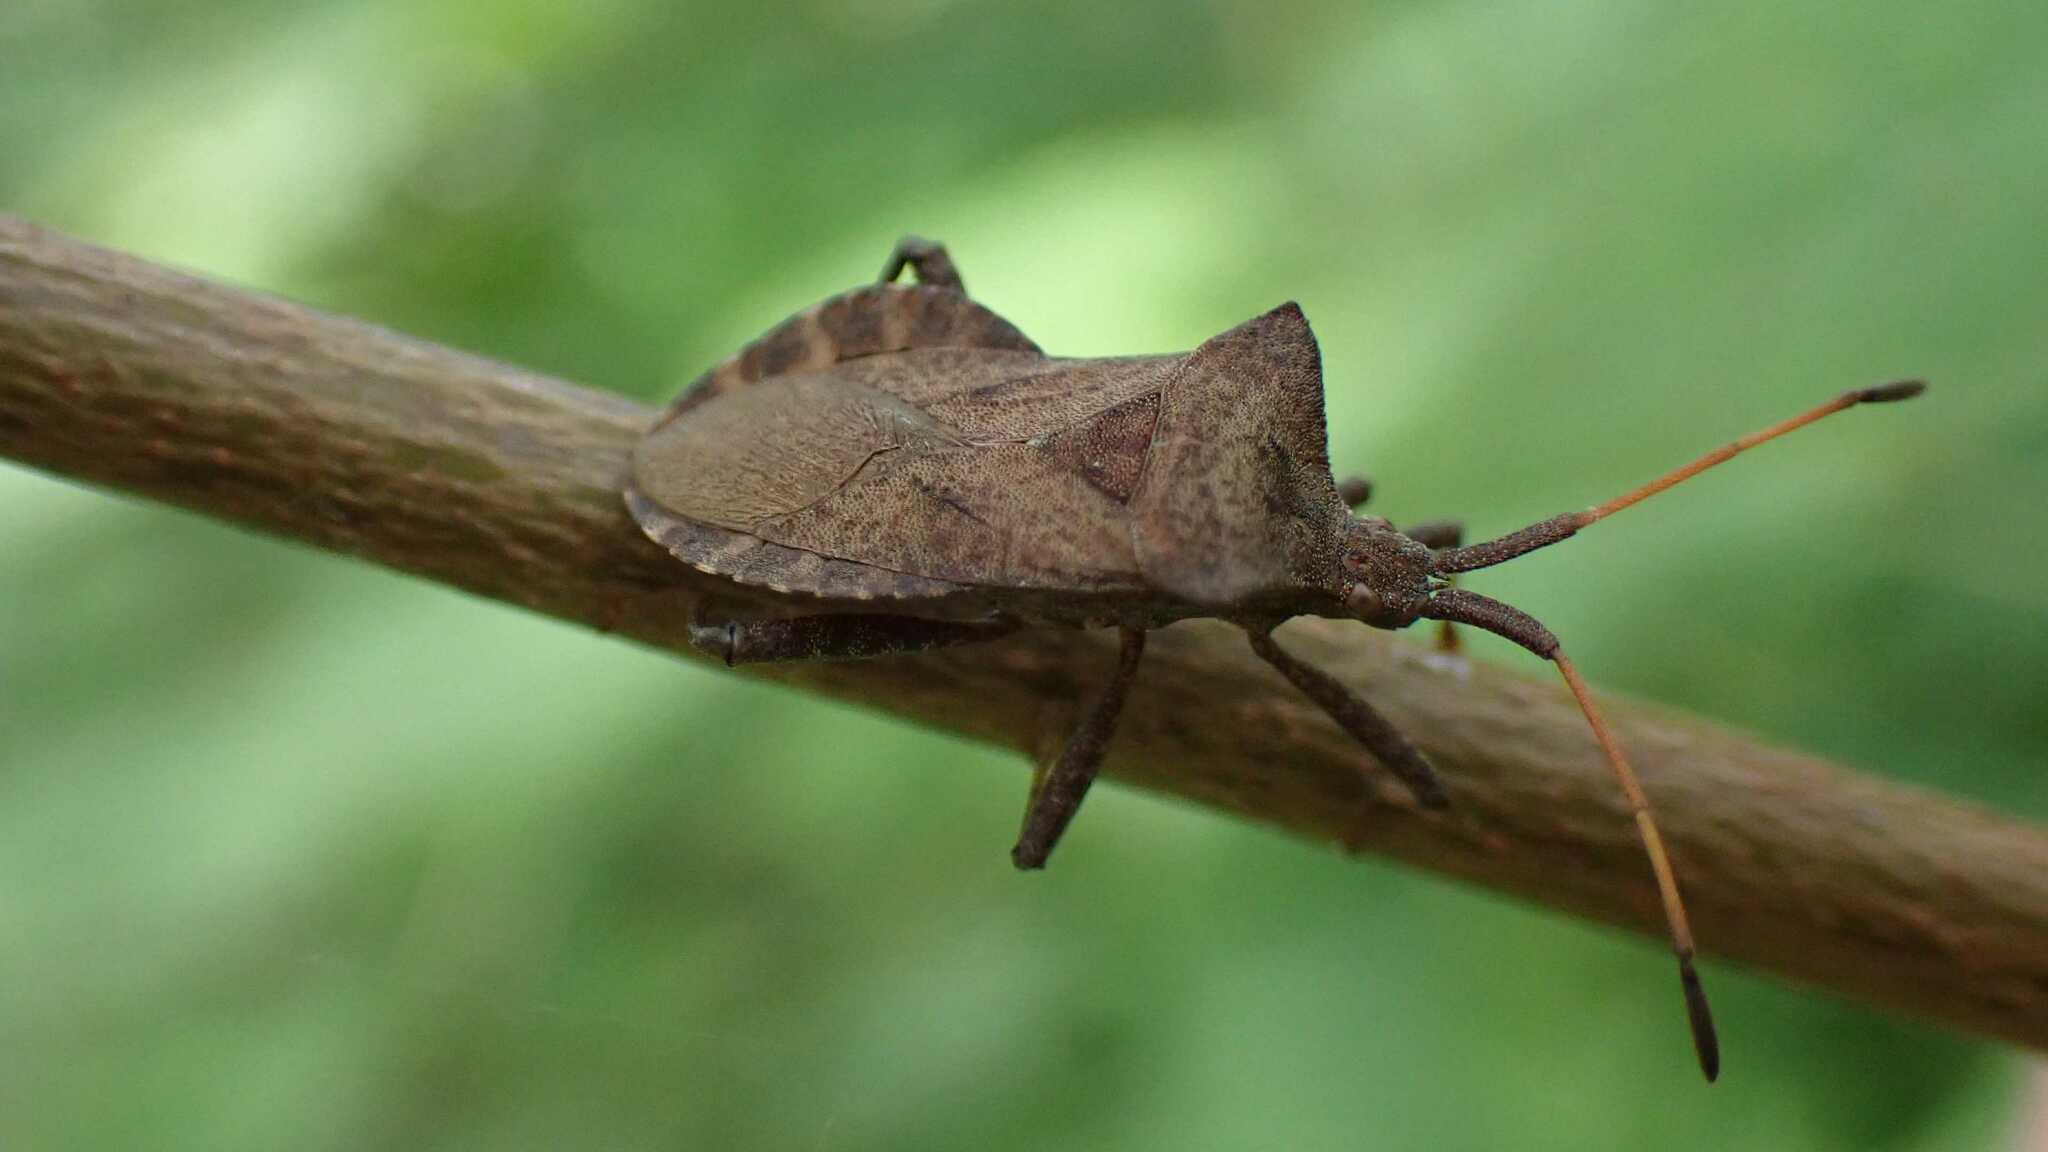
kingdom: Animalia
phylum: Arthropoda
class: Insecta
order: Hemiptera
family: Coreidae
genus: Coreus
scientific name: Coreus marginatus
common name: Dock bug
